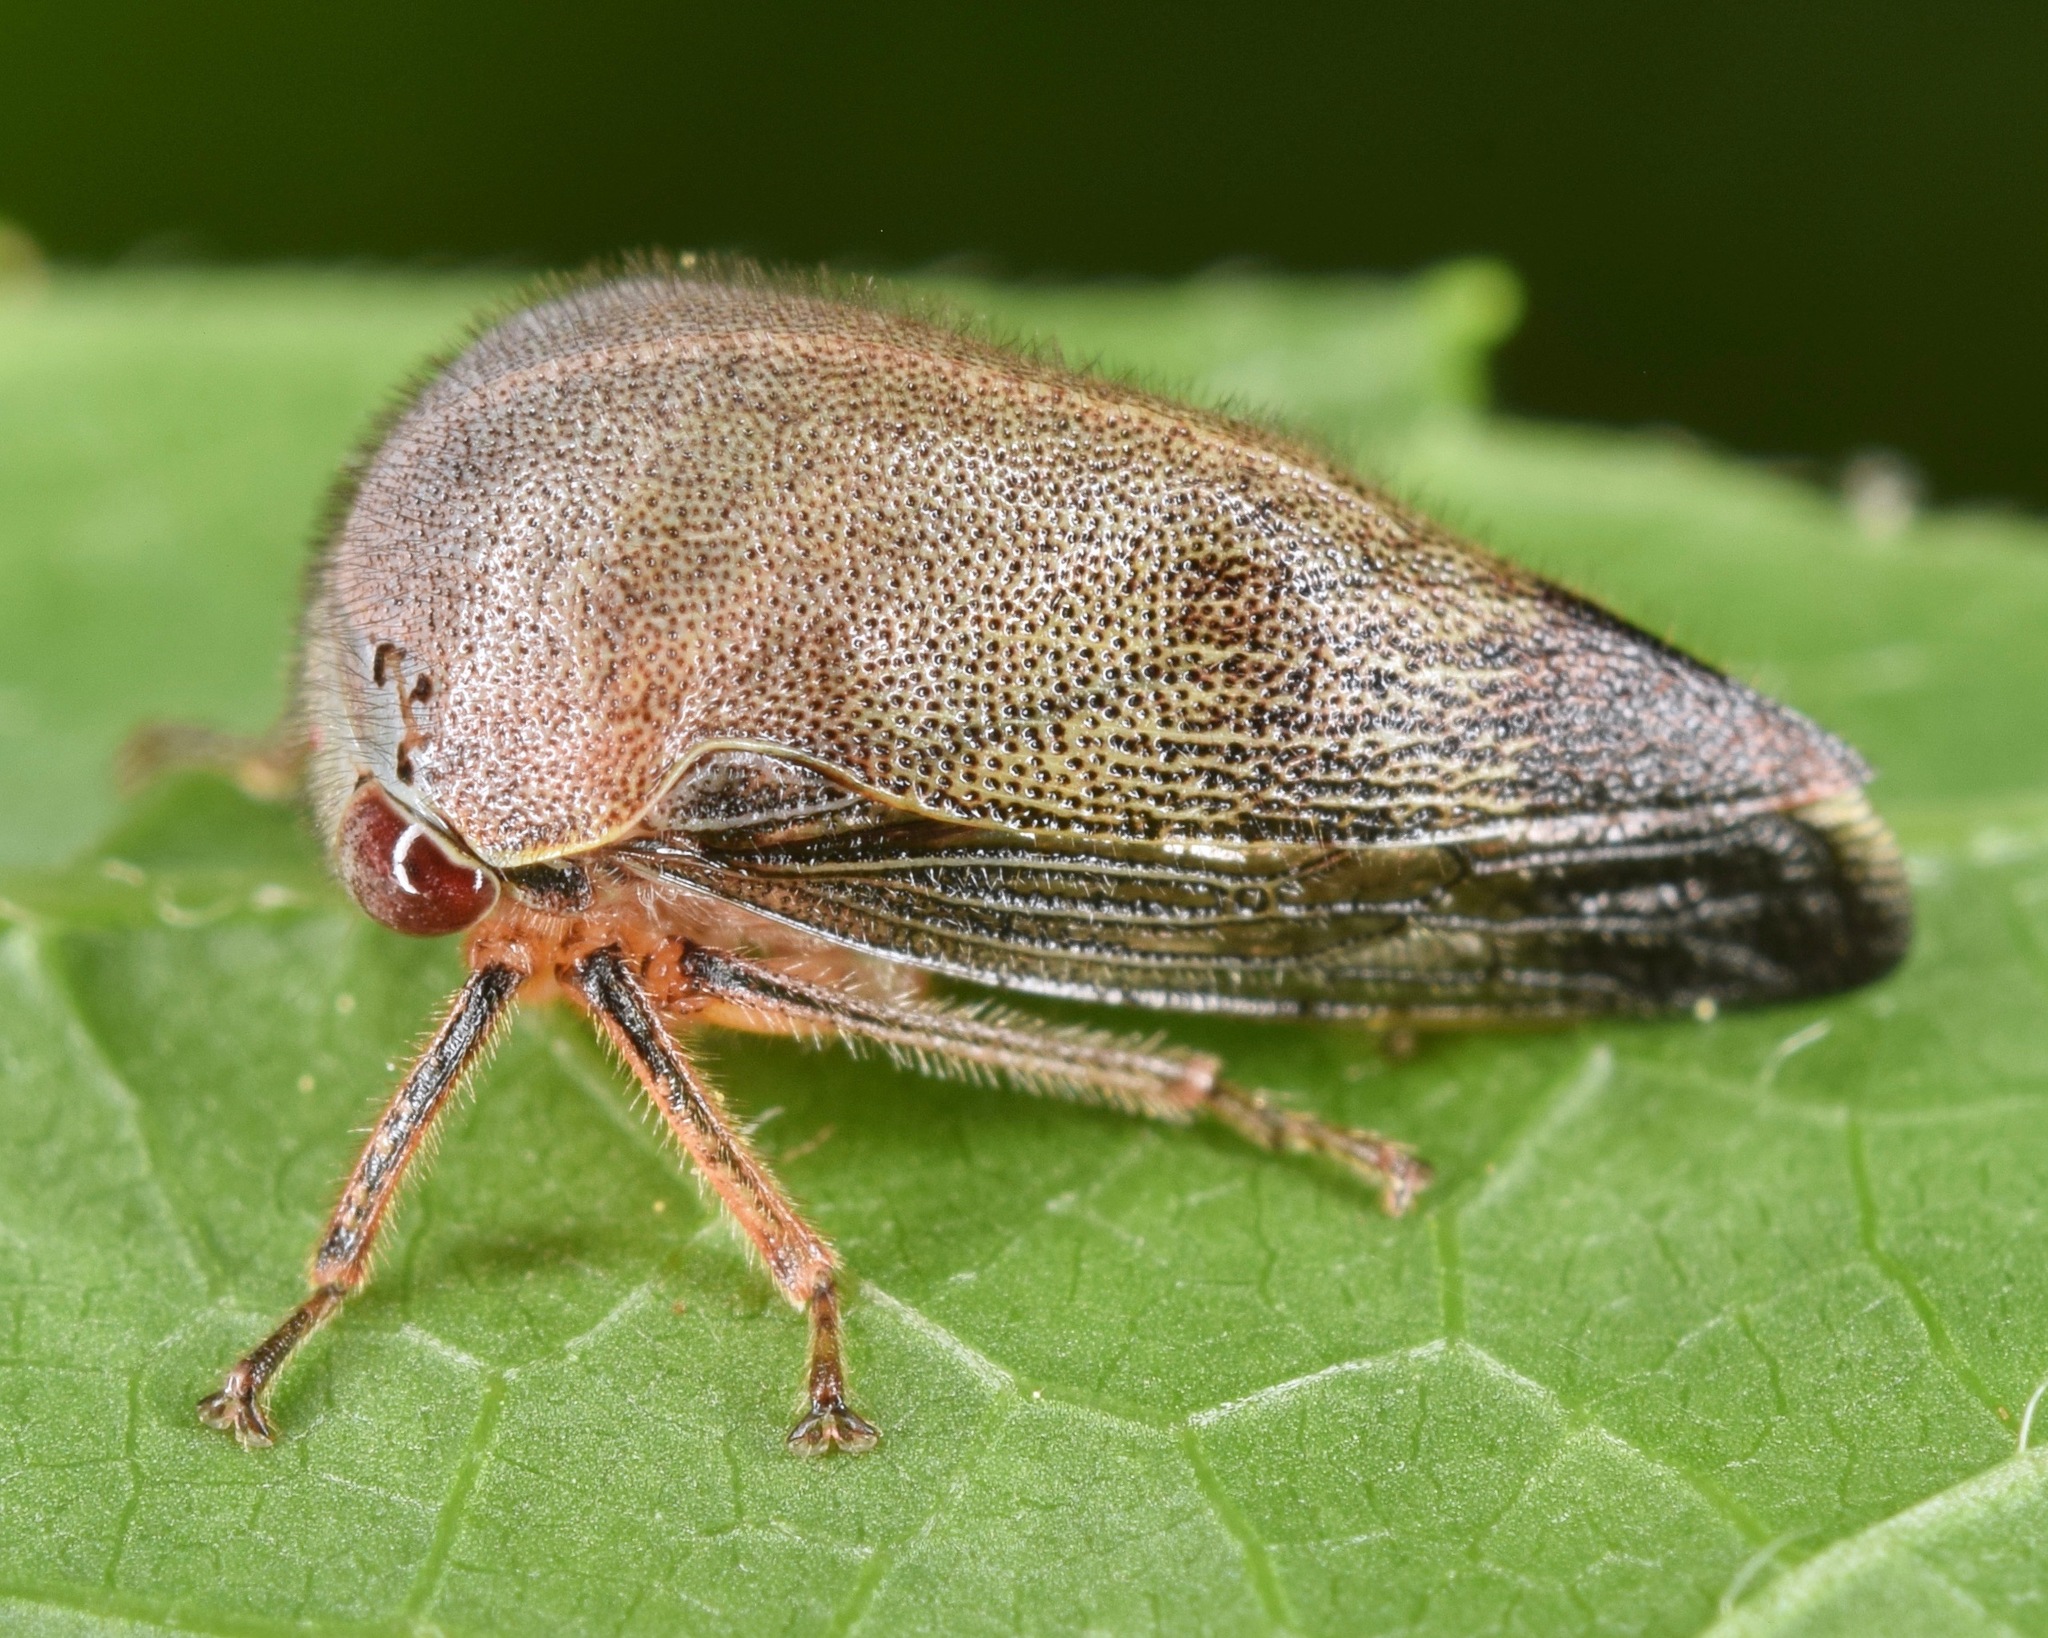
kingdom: Animalia
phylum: Arthropoda
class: Insecta
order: Hemiptera
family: Membracidae
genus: Carynota
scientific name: Carynota mera
